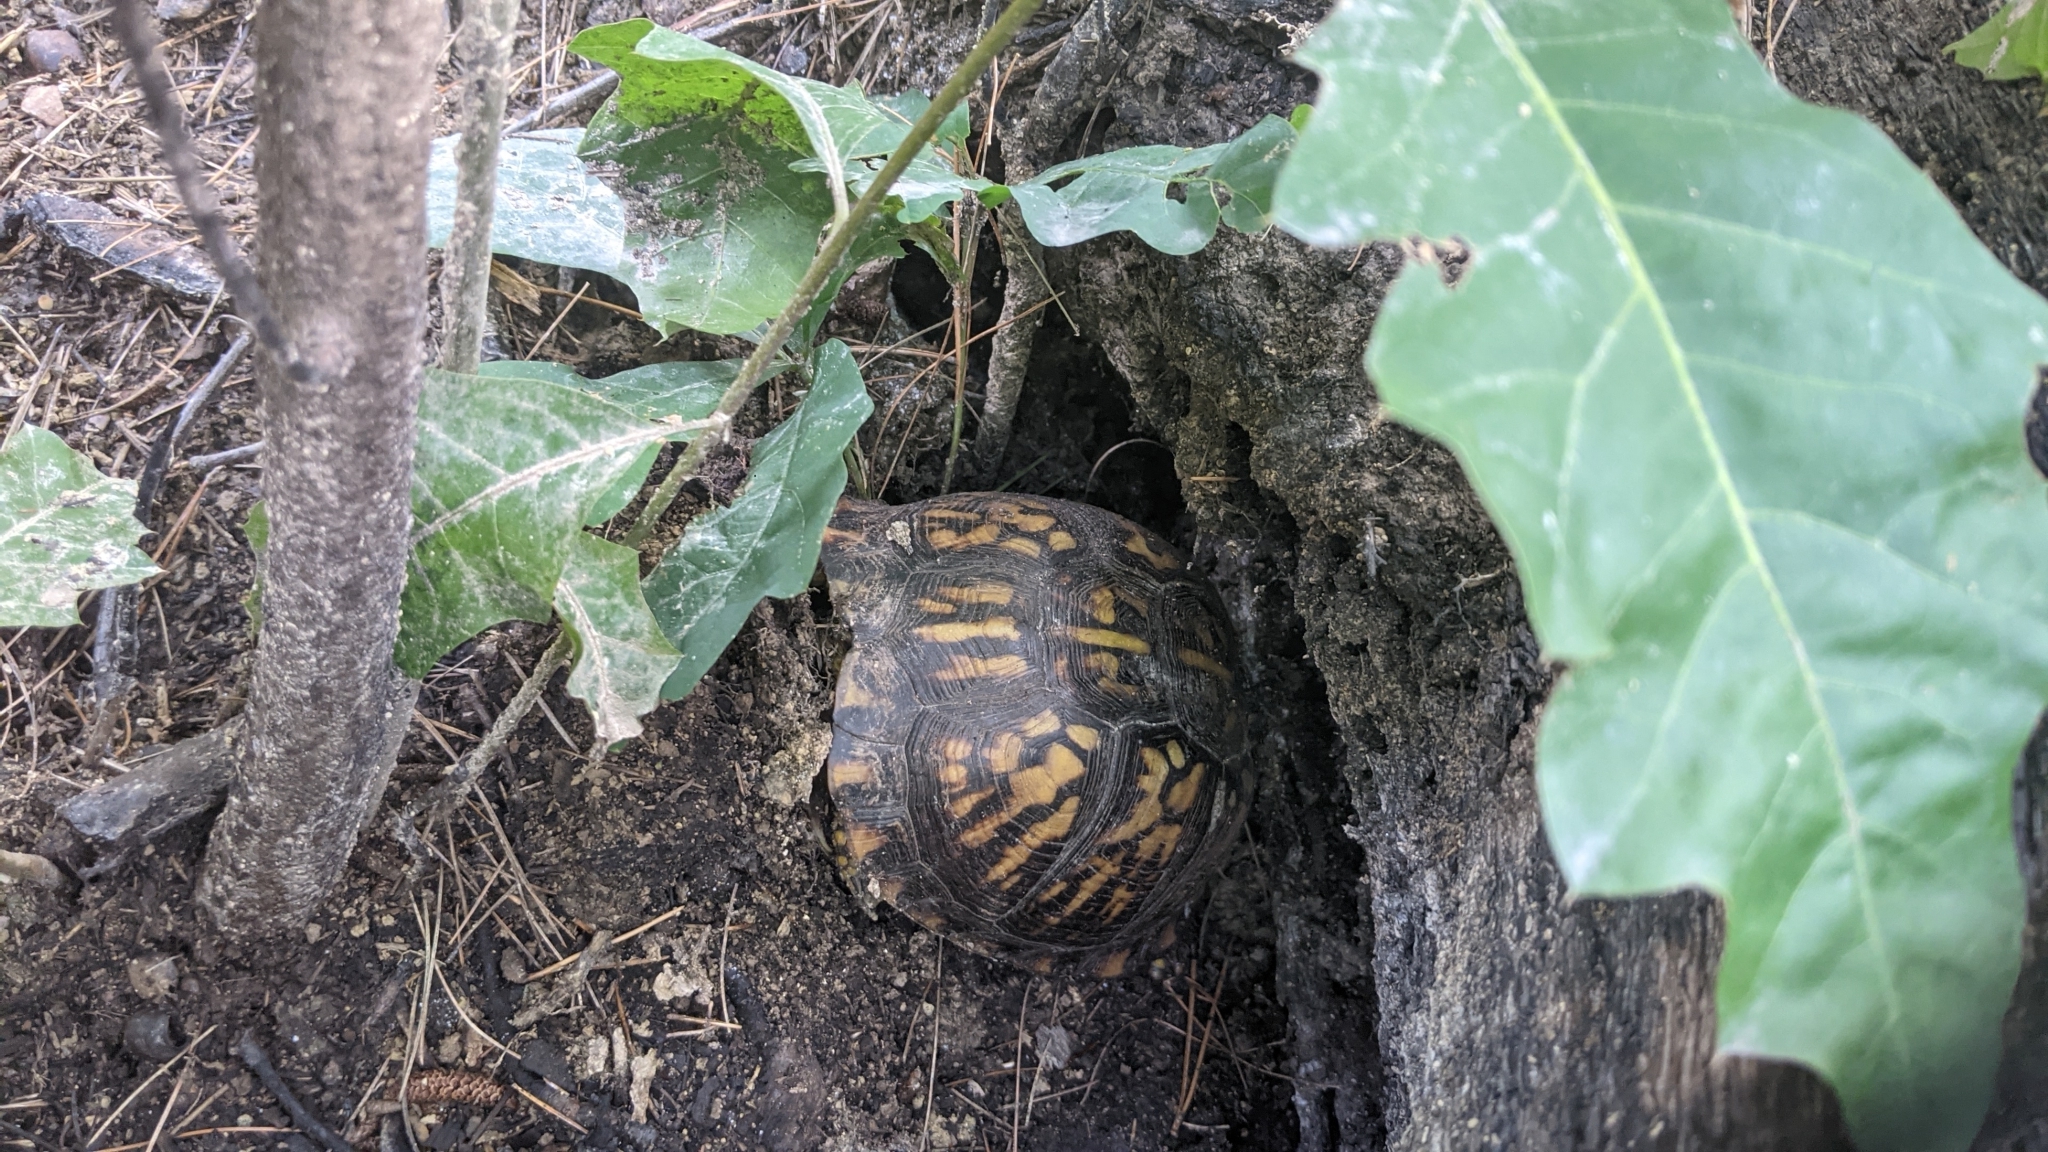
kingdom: Animalia
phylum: Chordata
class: Testudines
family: Emydidae
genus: Terrapene
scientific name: Terrapene carolina
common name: Common box turtle
